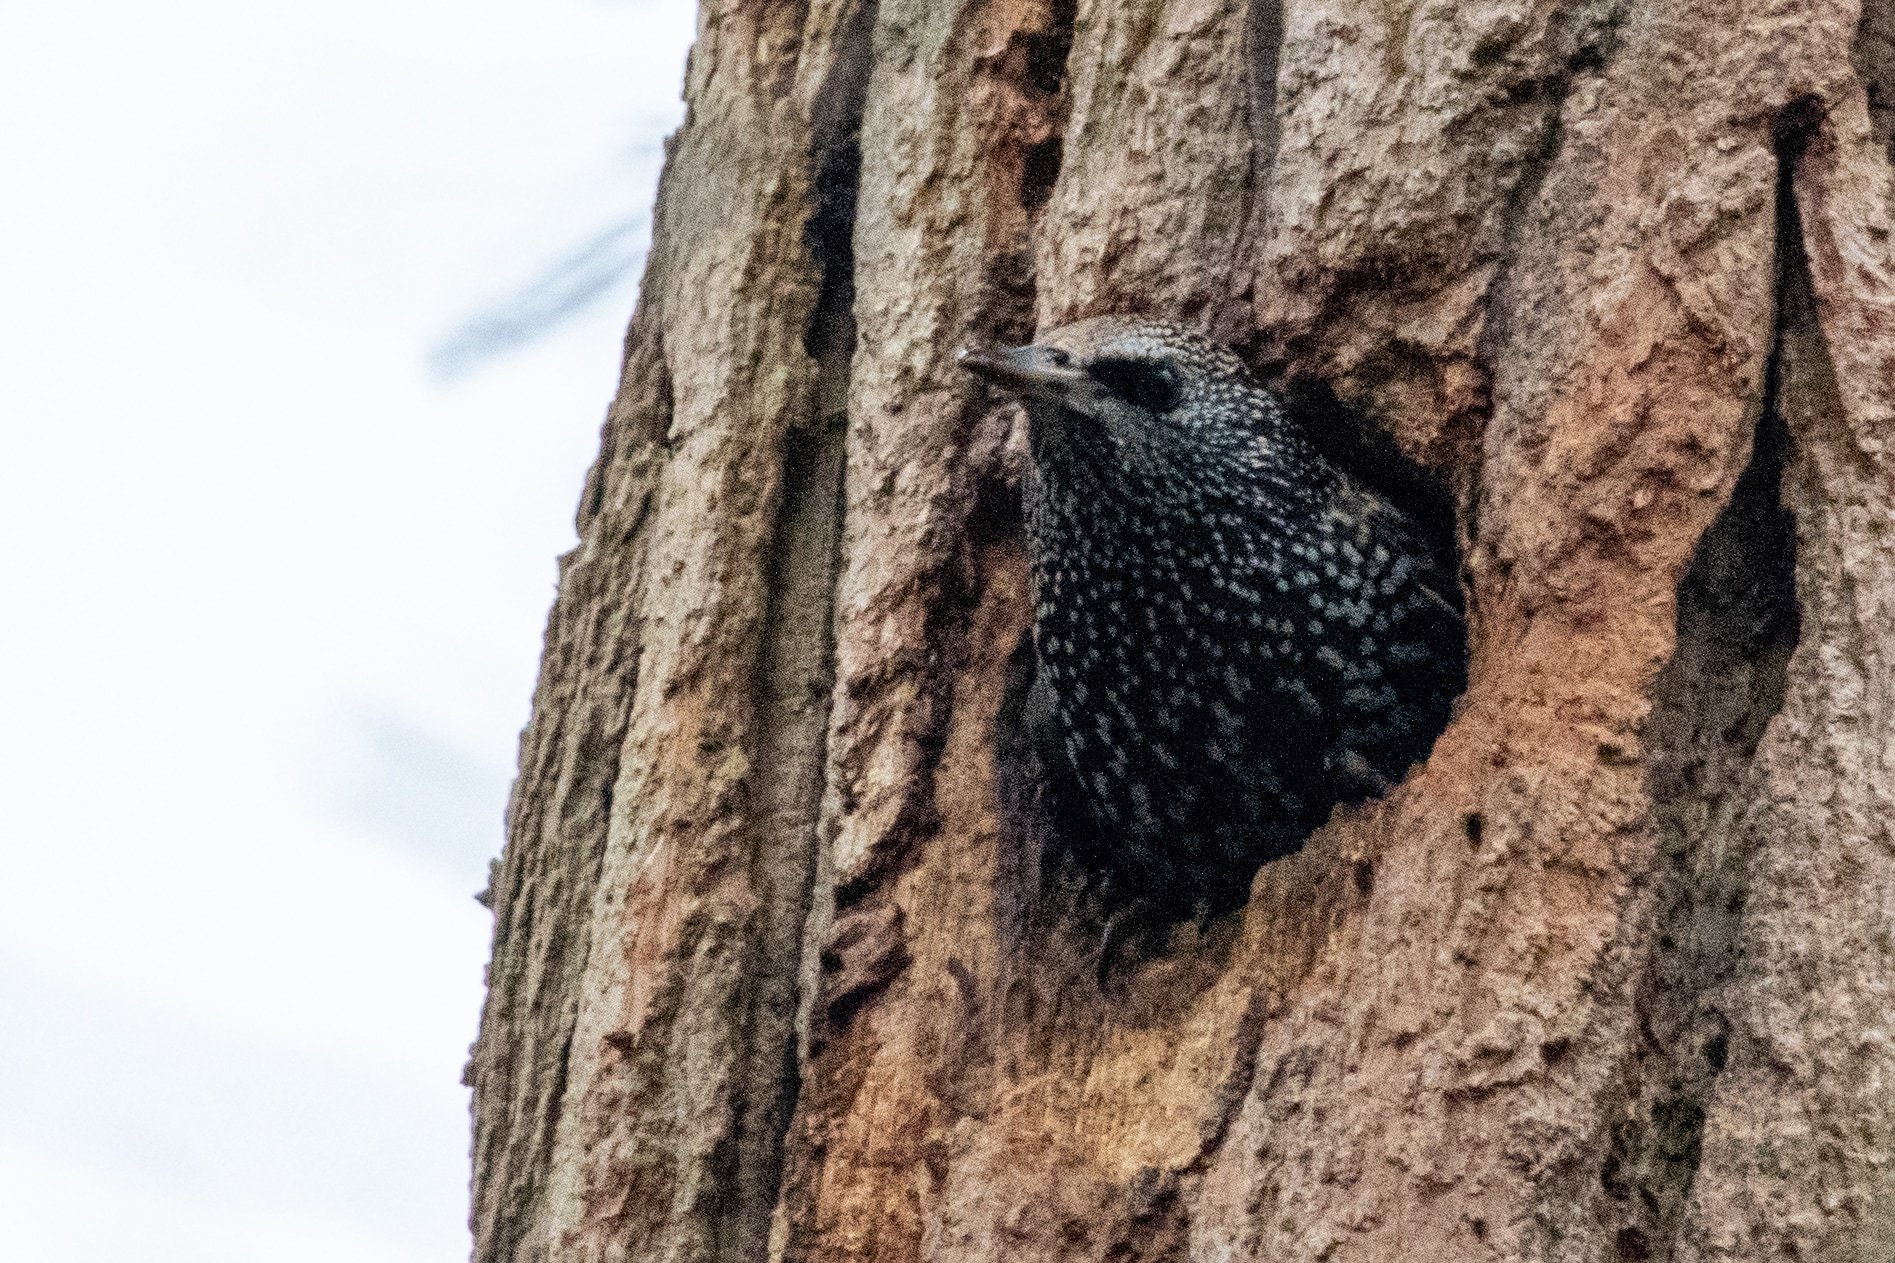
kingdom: Animalia
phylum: Chordata
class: Aves
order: Passeriformes
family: Sturnidae
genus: Sturnus
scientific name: Sturnus vulgaris
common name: Common starling
